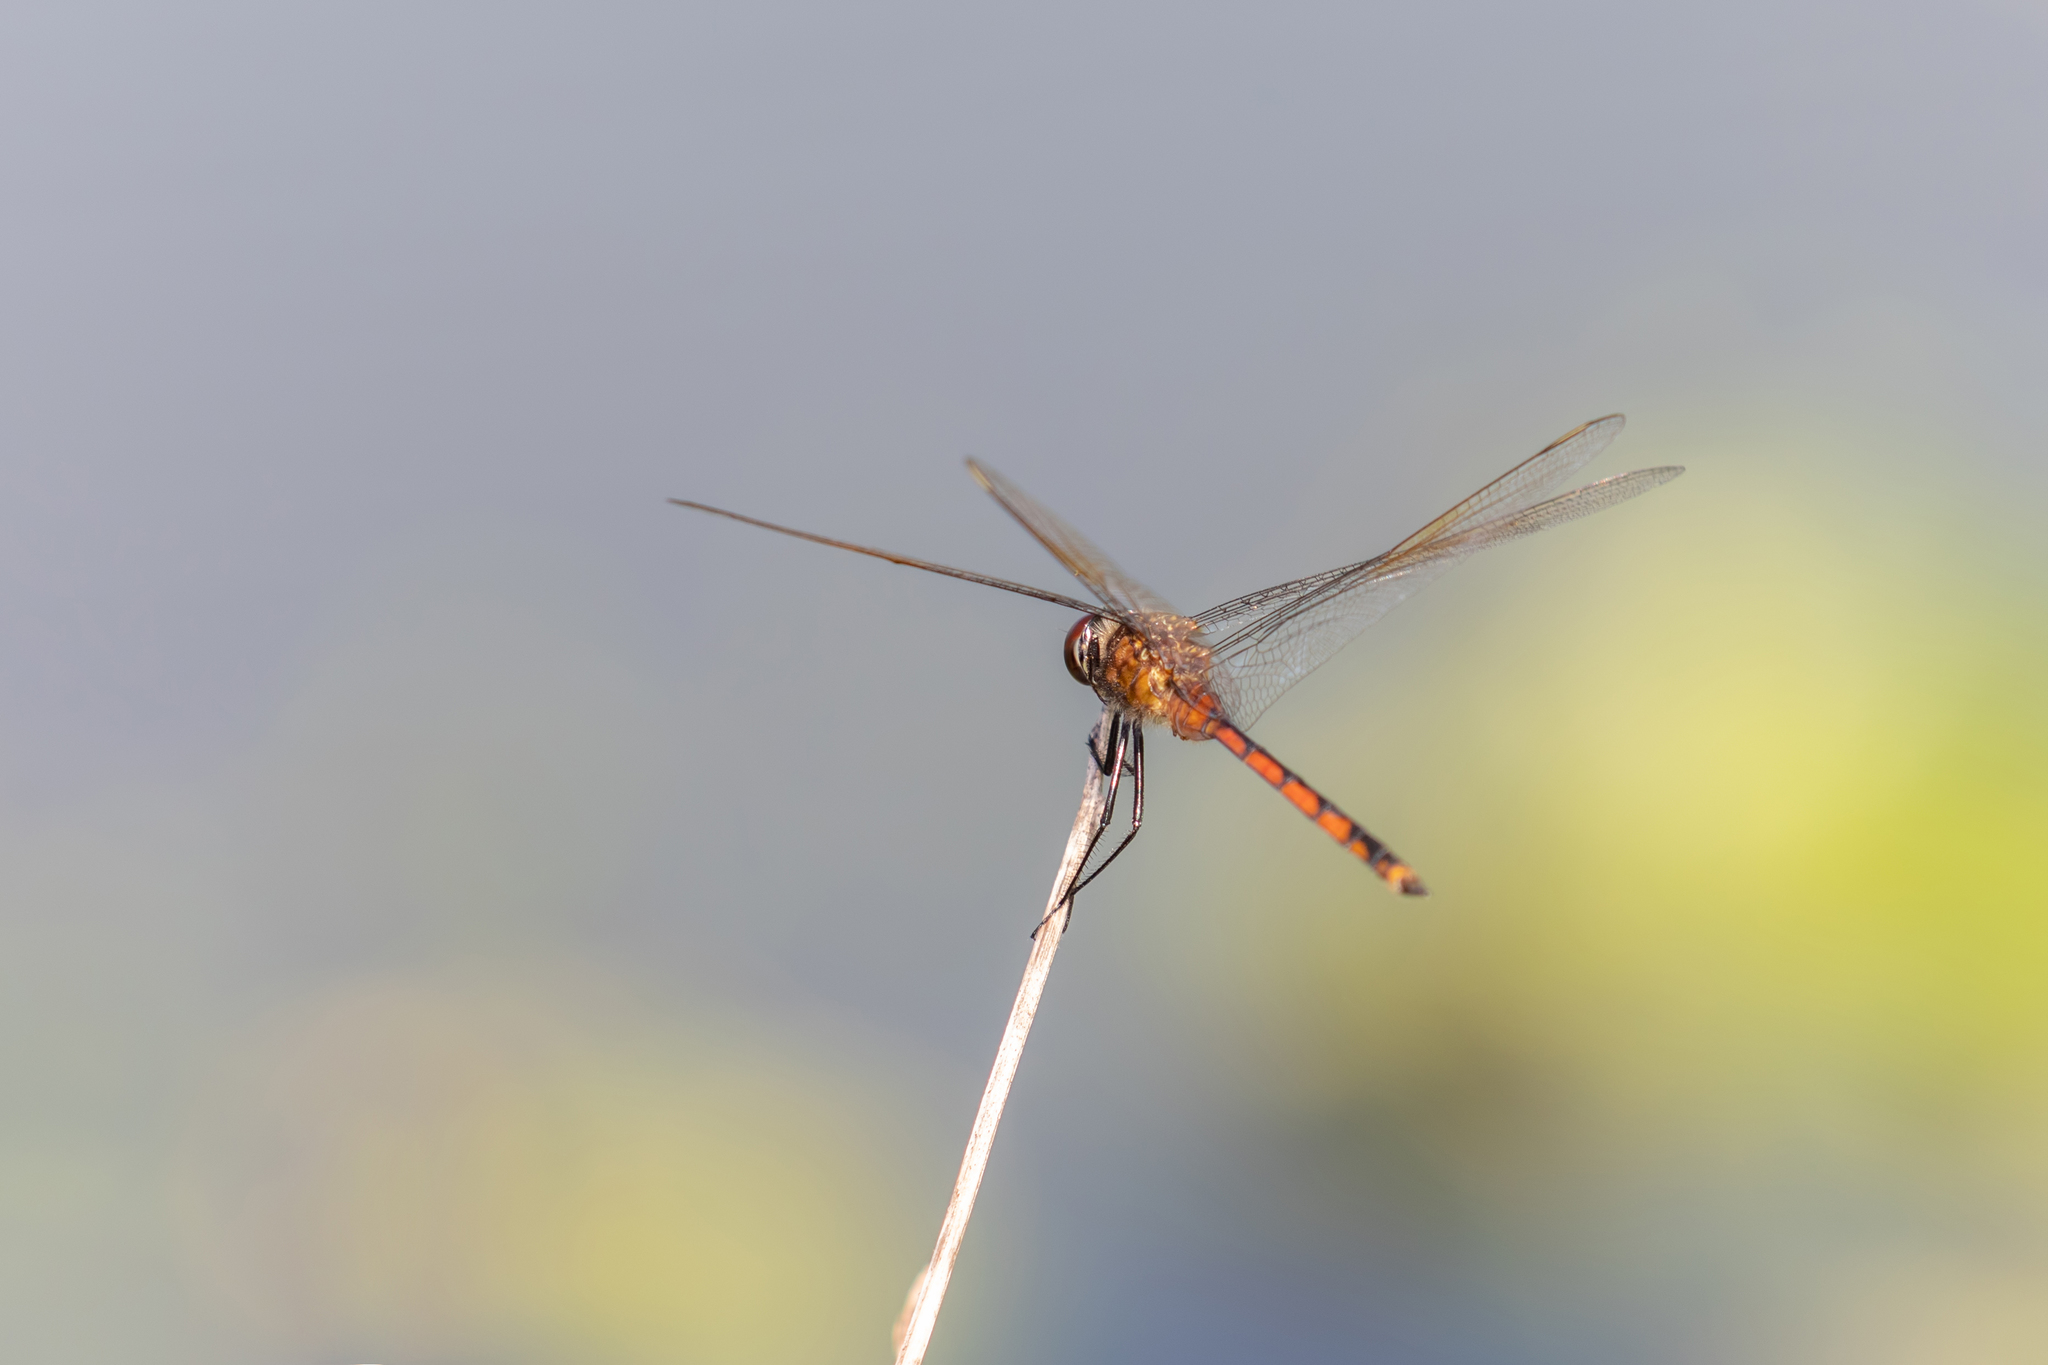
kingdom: Animalia
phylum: Arthropoda
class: Insecta
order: Odonata
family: Libellulidae
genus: Brachymesia
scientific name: Brachymesia gravida
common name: Four-spotted pennant
